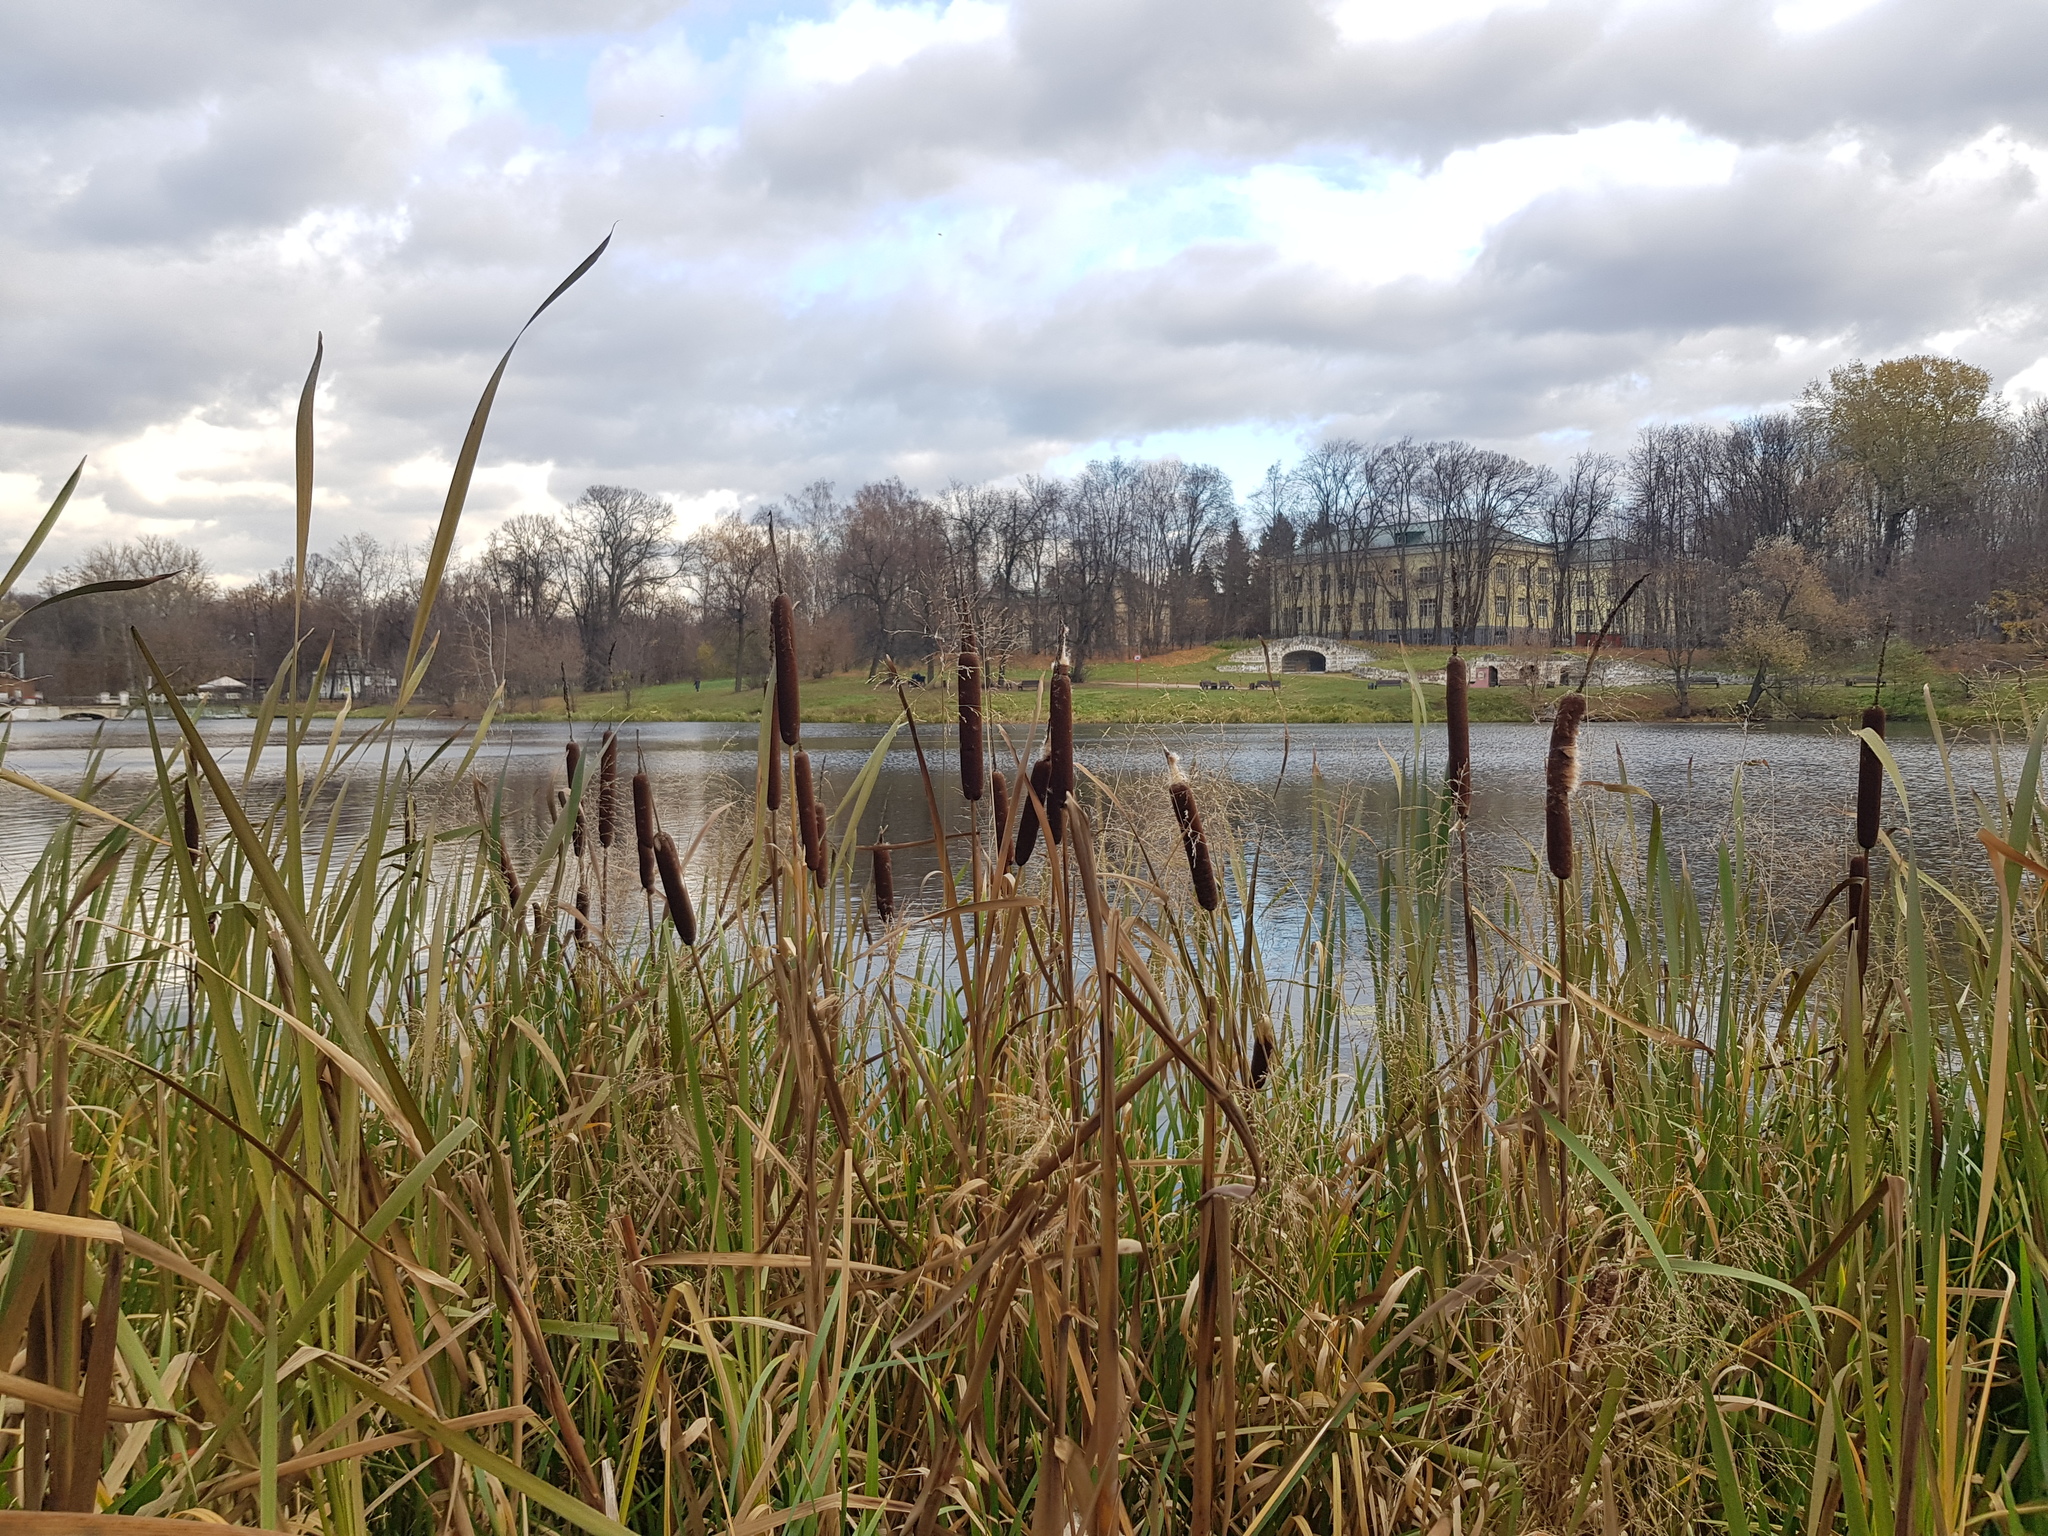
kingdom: Plantae
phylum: Tracheophyta
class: Liliopsida
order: Poales
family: Typhaceae
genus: Typha
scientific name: Typha latifolia
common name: Broadleaf cattail
